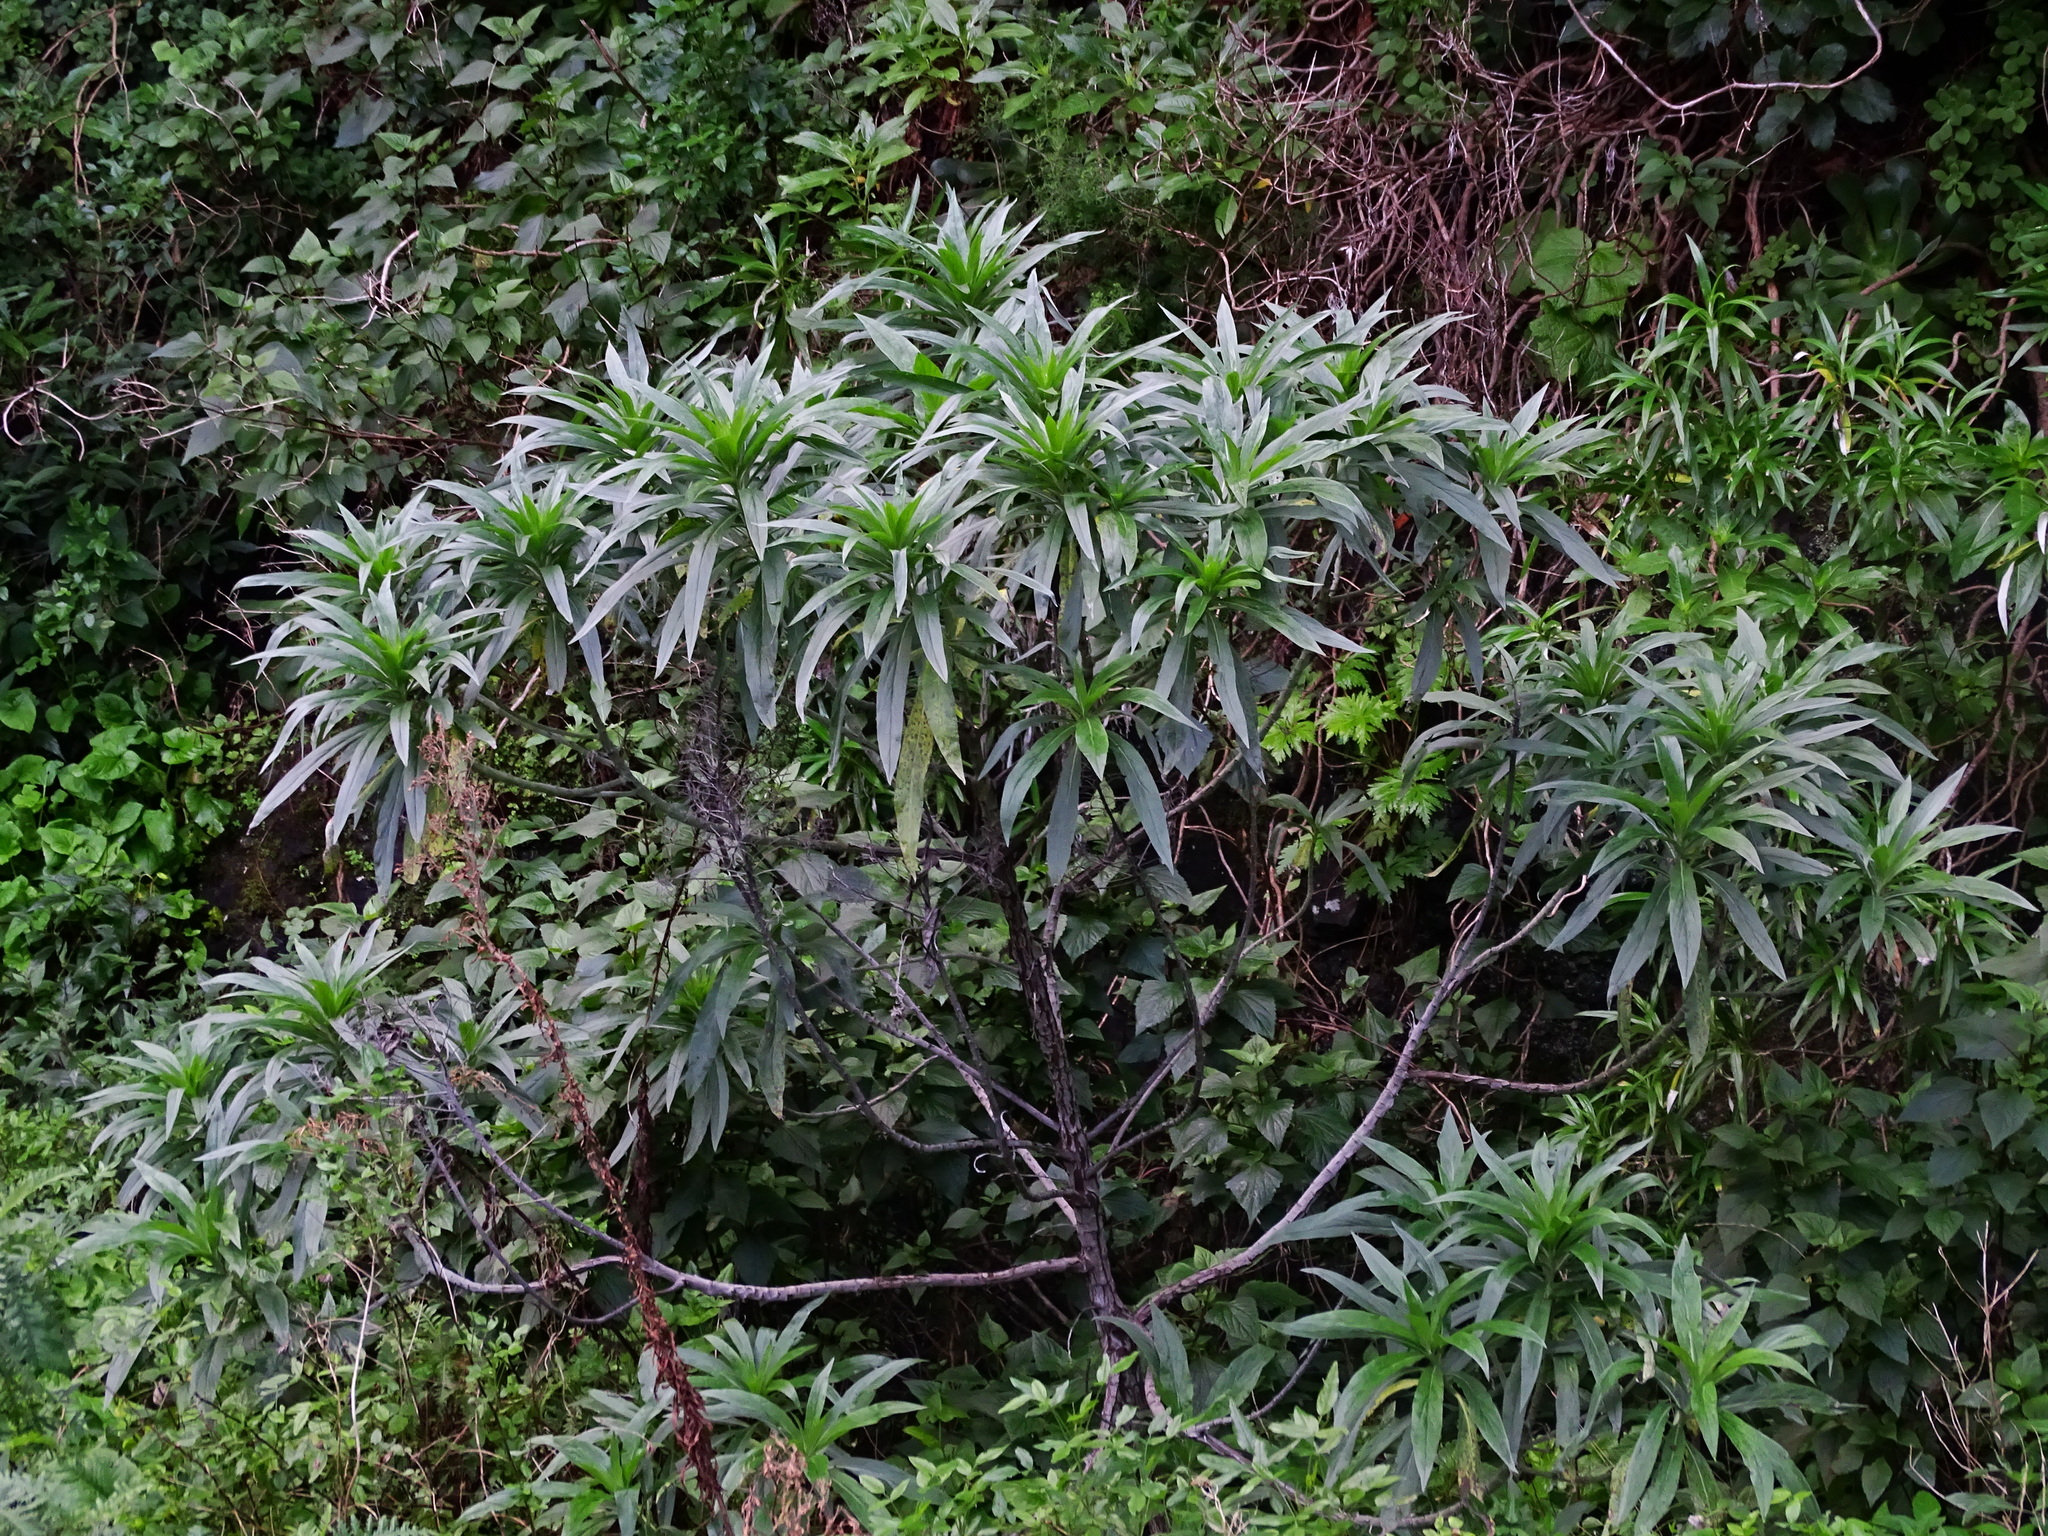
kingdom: Plantae
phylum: Tracheophyta
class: Magnoliopsida
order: Boraginales
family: Boraginaceae
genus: Echium
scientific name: Echium webbii
